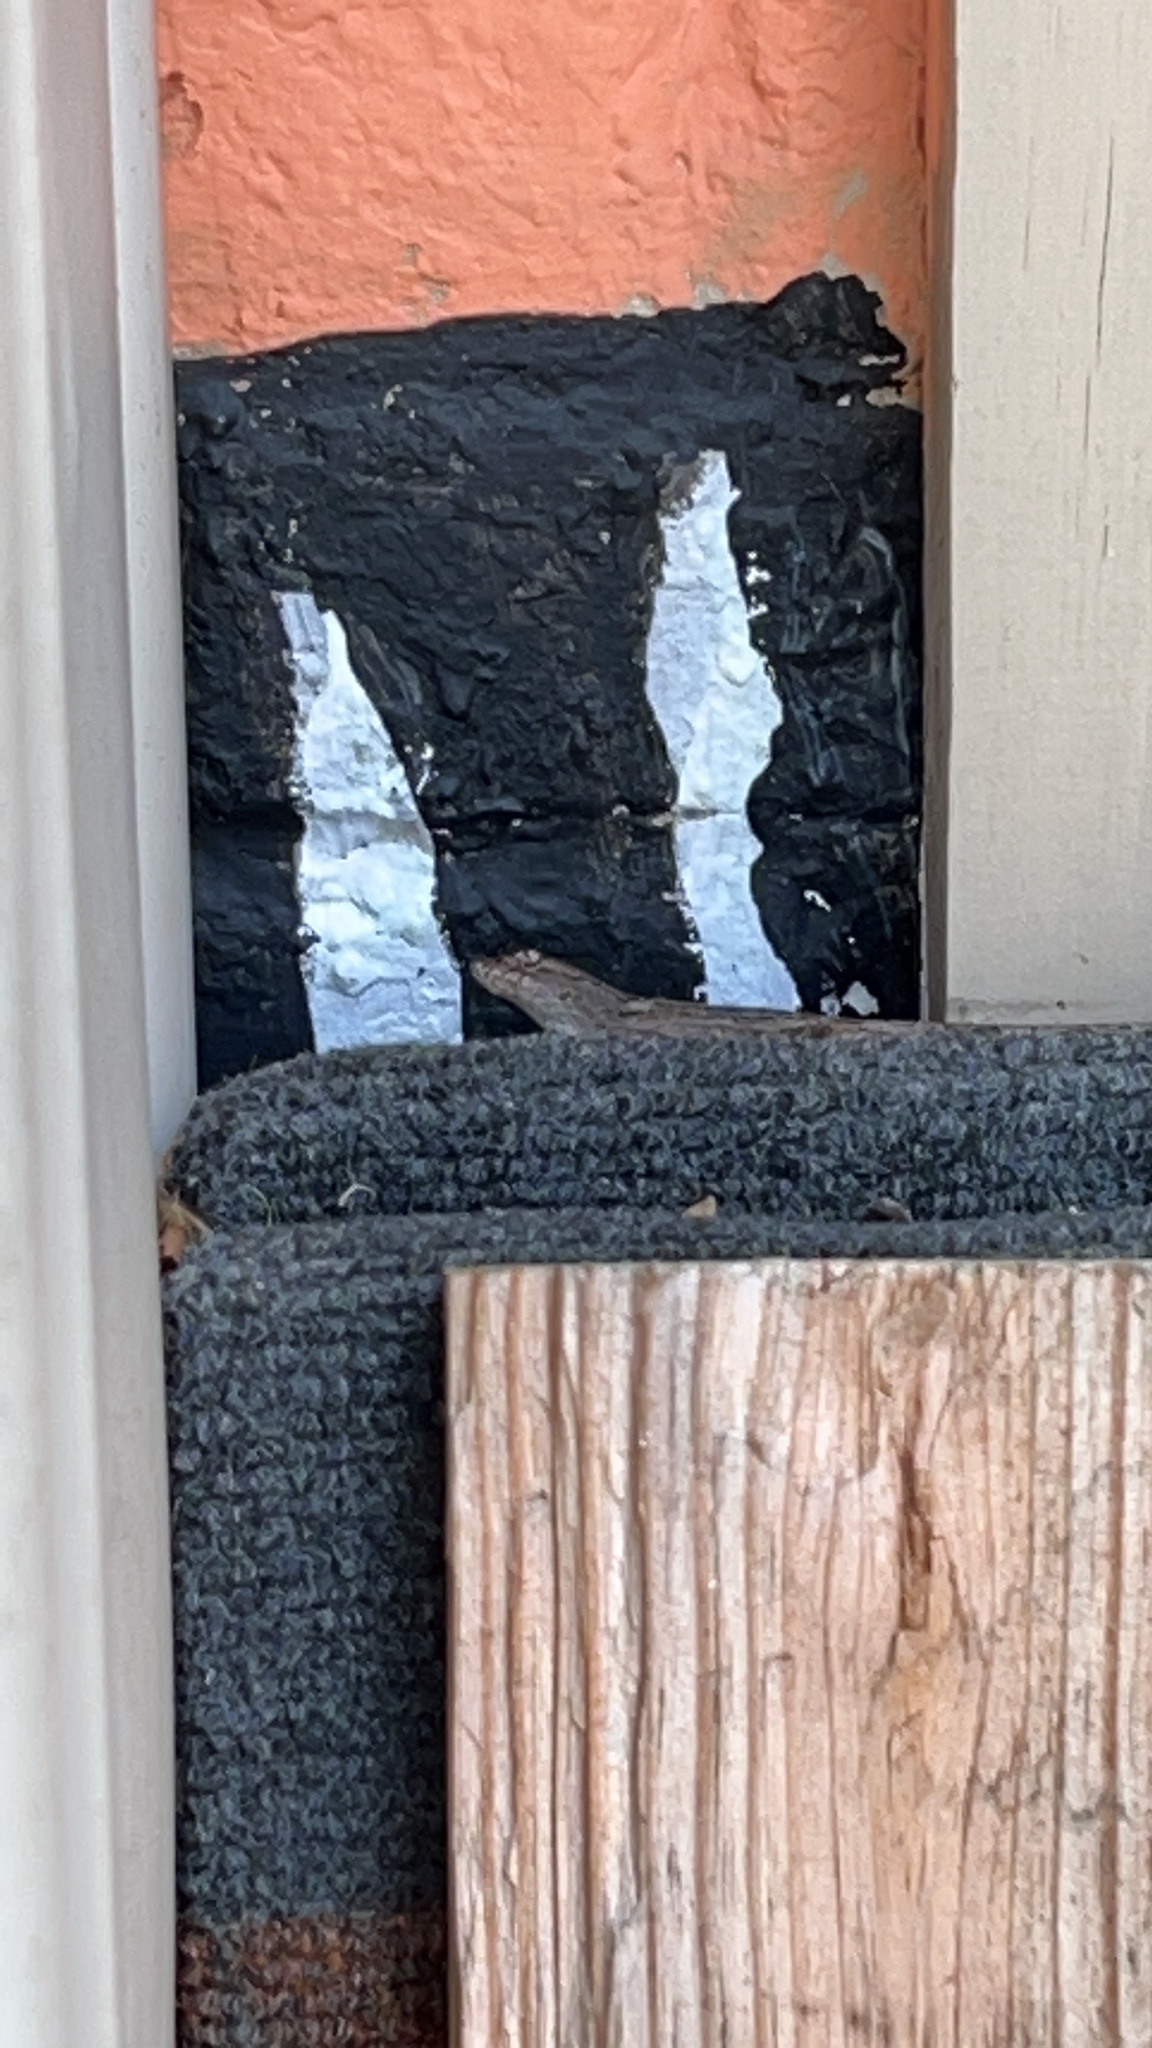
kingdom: Animalia
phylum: Chordata
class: Squamata
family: Dactyloidae
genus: Anolis
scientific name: Anolis sagrei
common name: Brown anole
